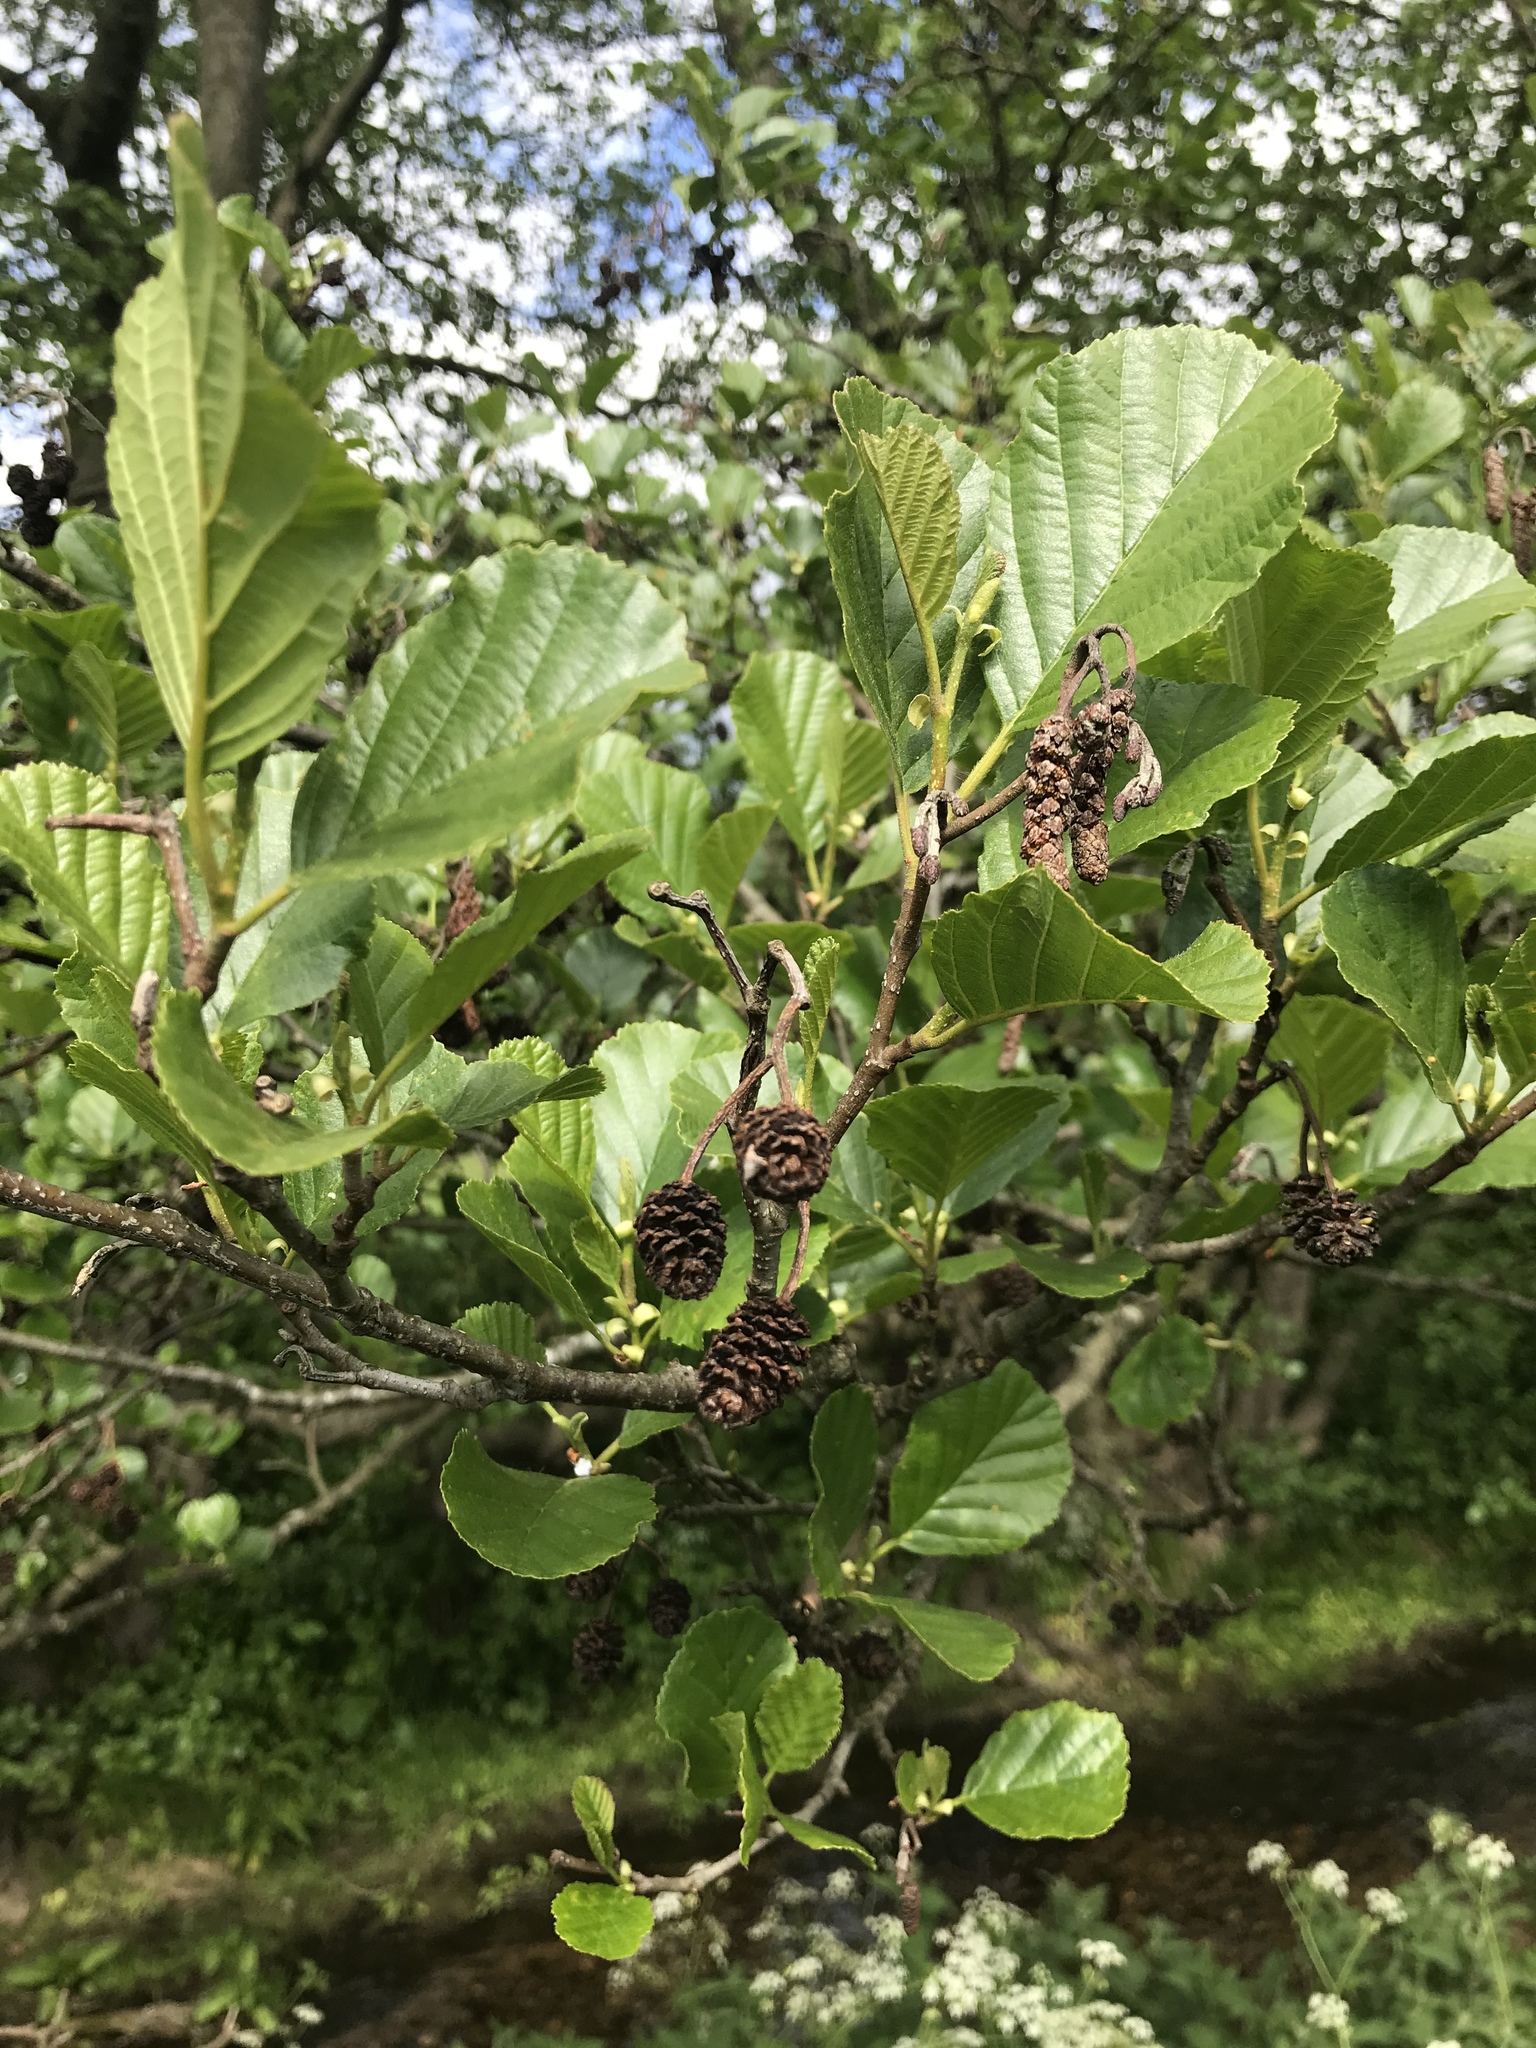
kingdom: Plantae
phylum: Tracheophyta
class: Magnoliopsida
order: Fagales
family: Betulaceae
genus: Alnus
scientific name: Alnus glutinosa
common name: Black alder
